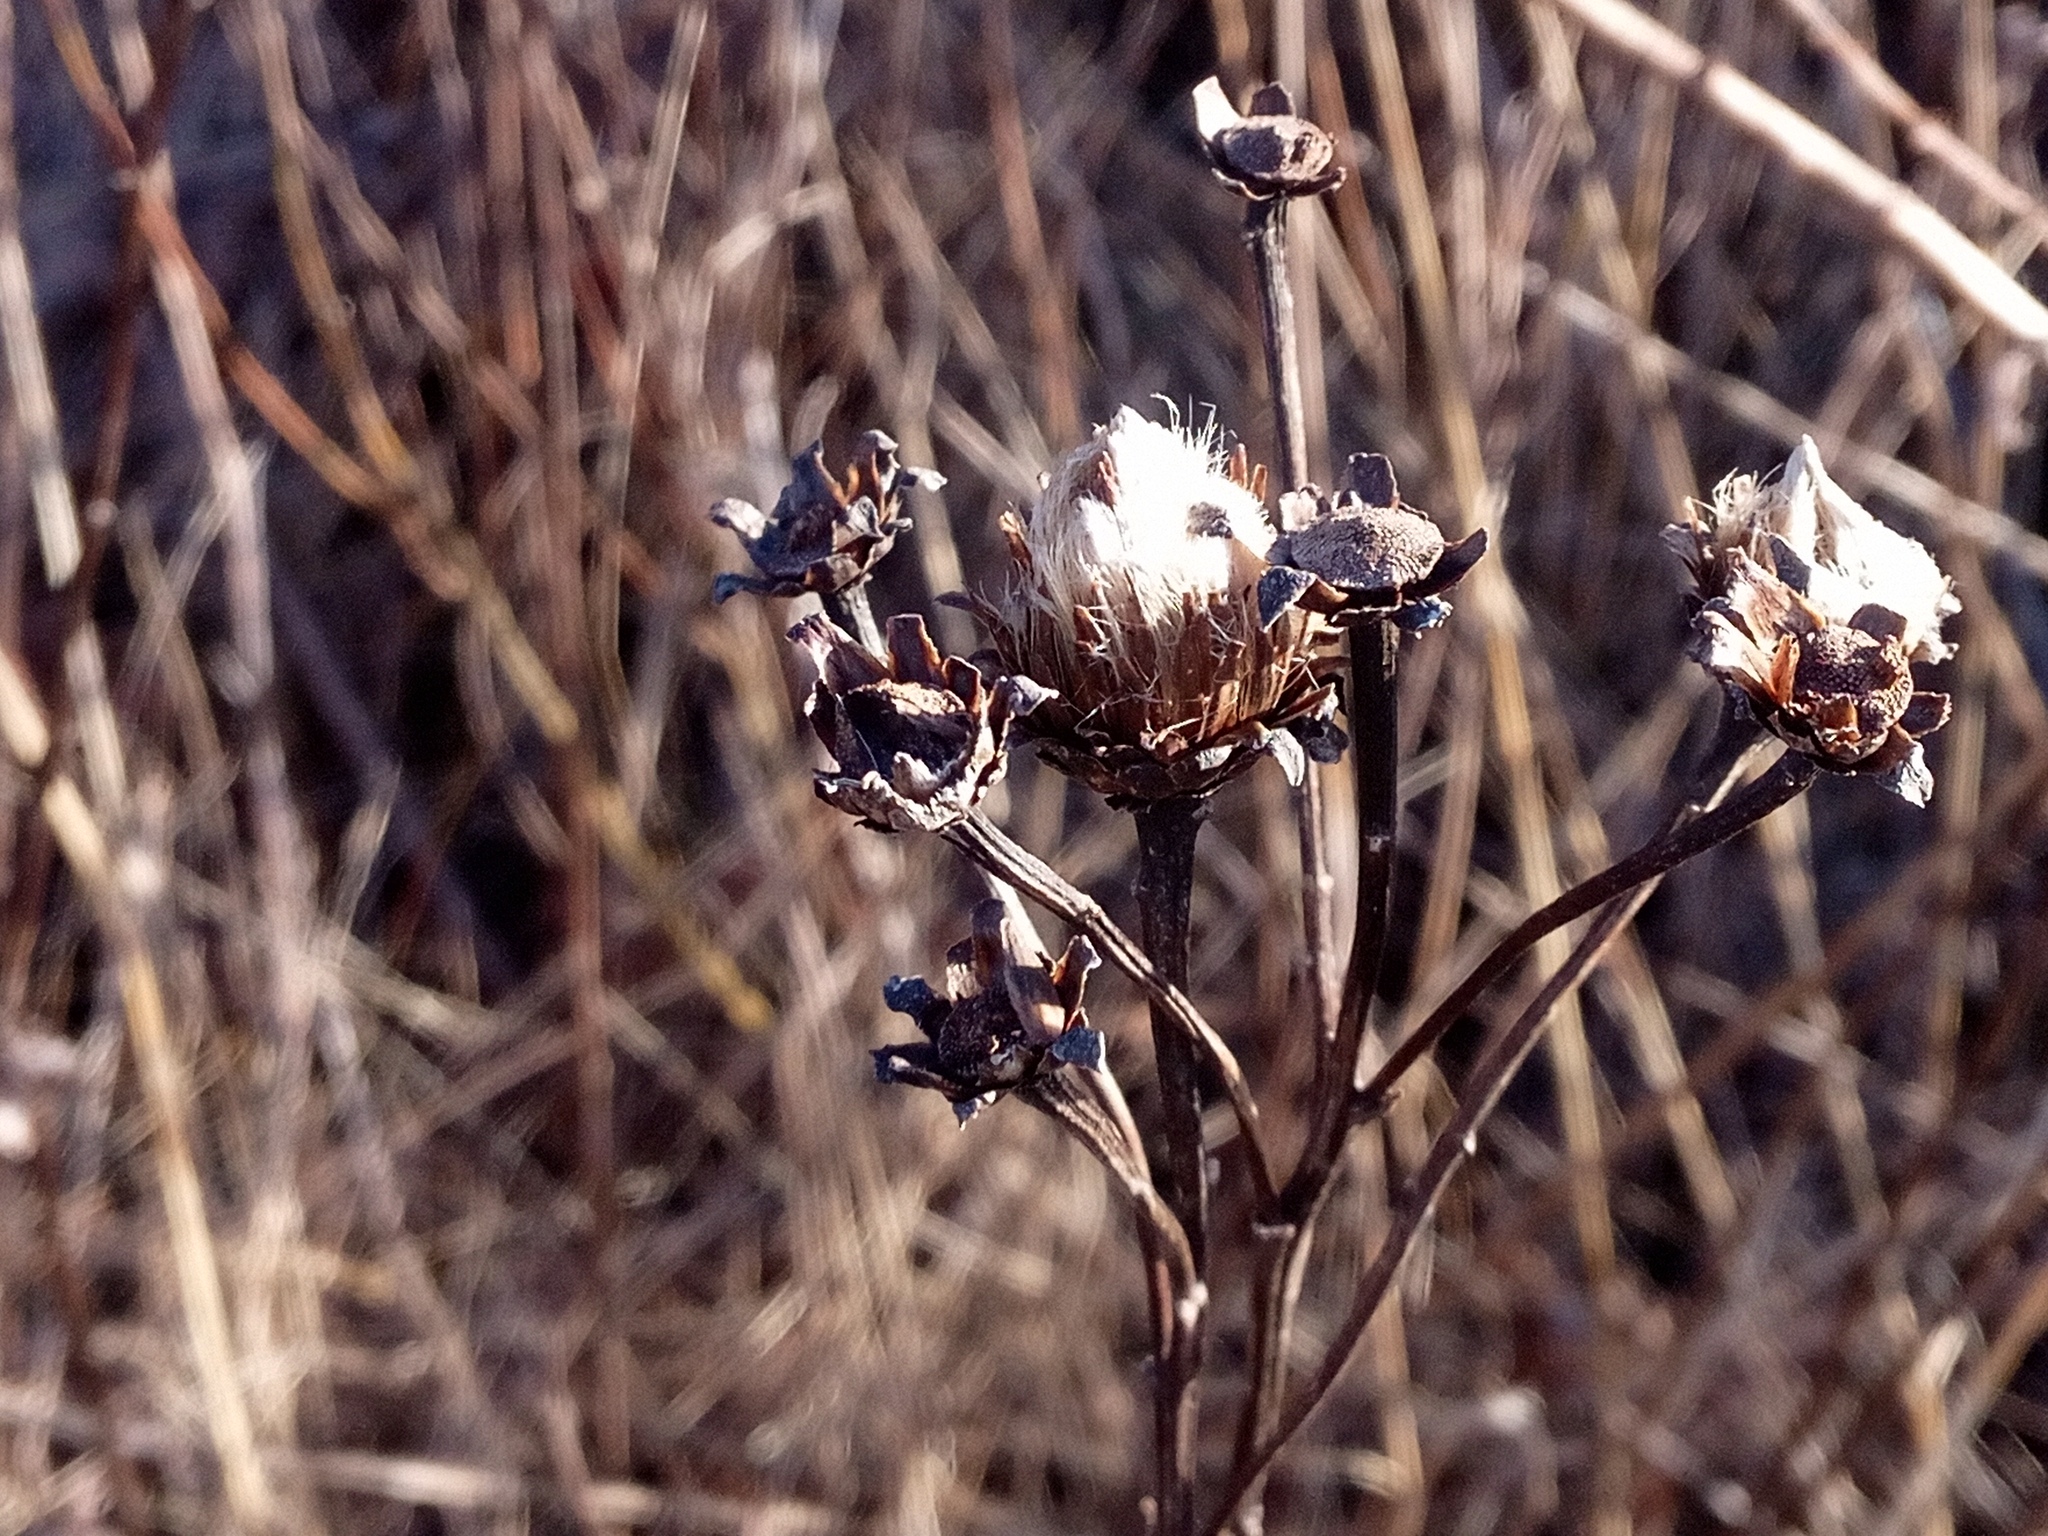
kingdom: Plantae
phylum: Tracheophyta
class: Magnoliopsida
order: Asterales
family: Asteraceae
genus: Pentanema
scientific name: Pentanema asperum
